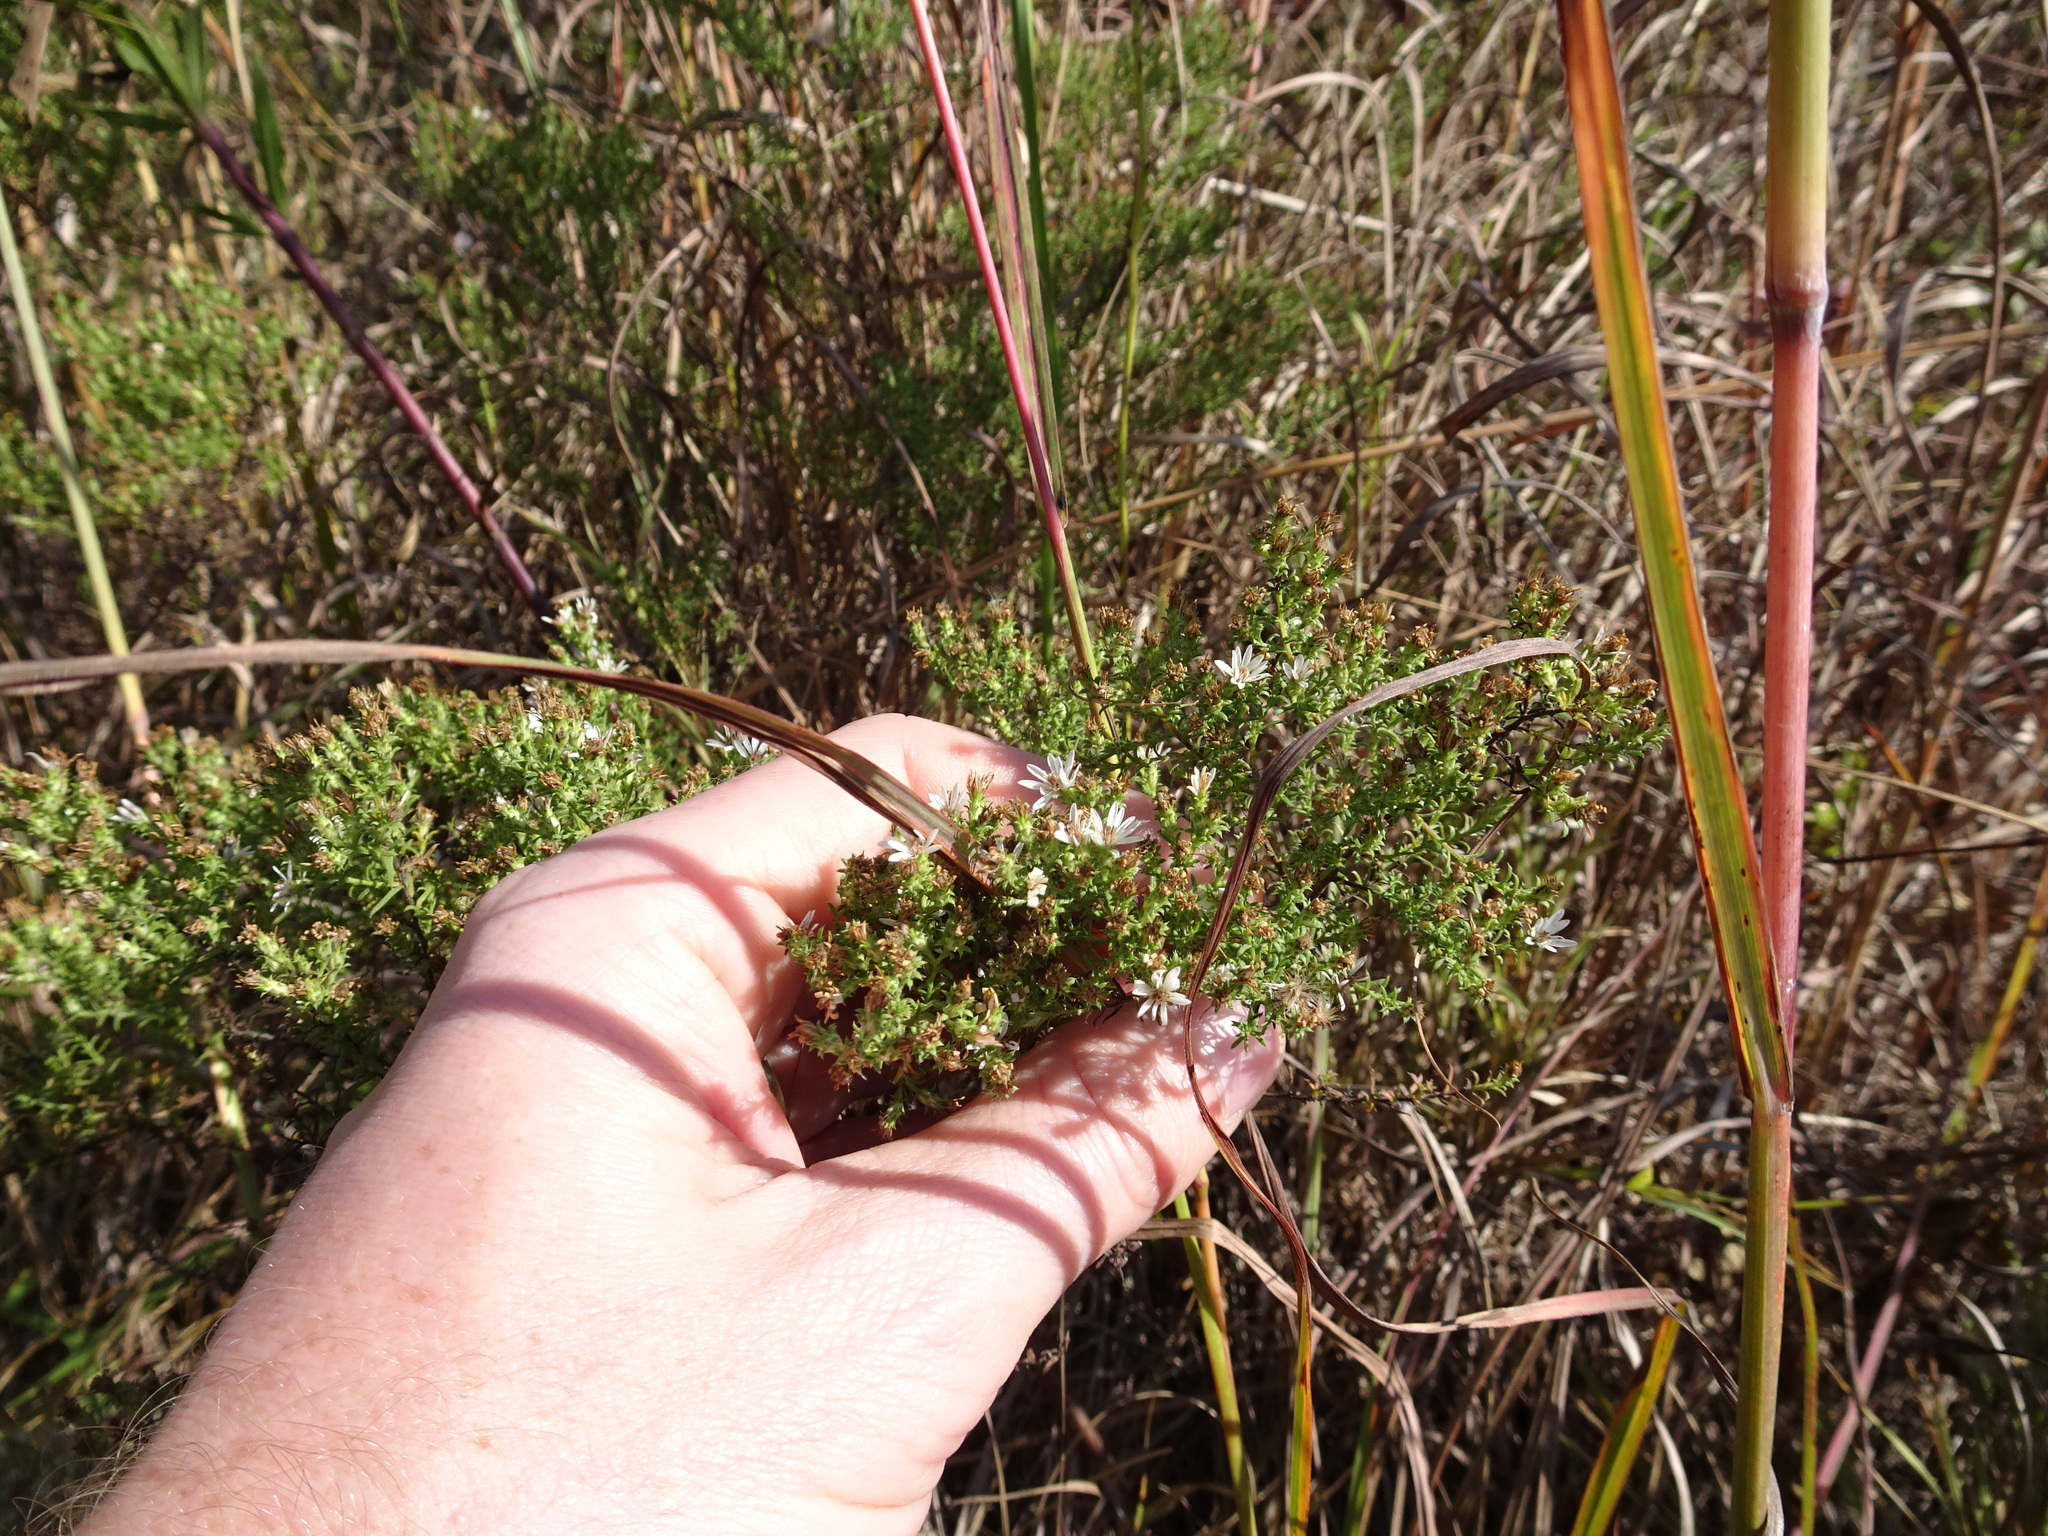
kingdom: Plantae
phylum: Tracheophyta
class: Magnoliopsida
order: Asterales
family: Asteraceae
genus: Symphyotrichum
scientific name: Symphyotrichum ericoides
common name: Heath aster
